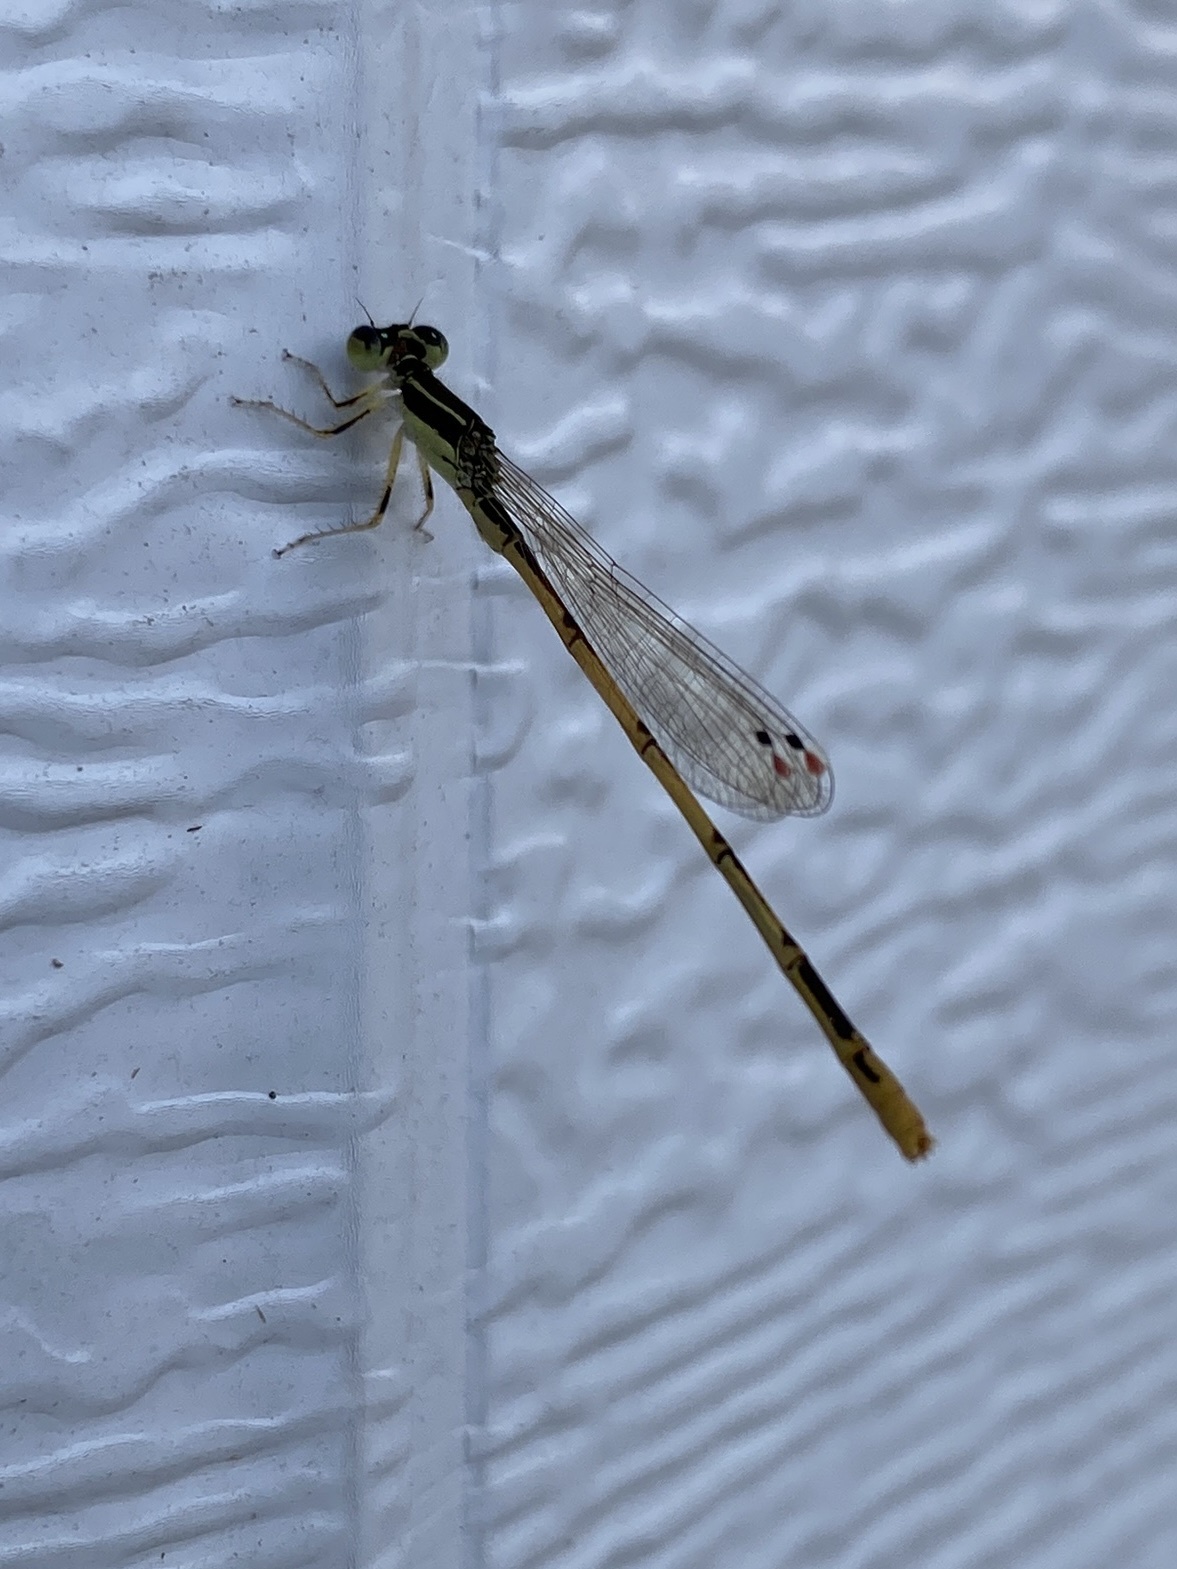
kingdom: Animalia
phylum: Arthropoda
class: Insecta
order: Odonata
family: Coenagrionidae
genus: Ischnura
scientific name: Ischnura hastata
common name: Citrine forktail
